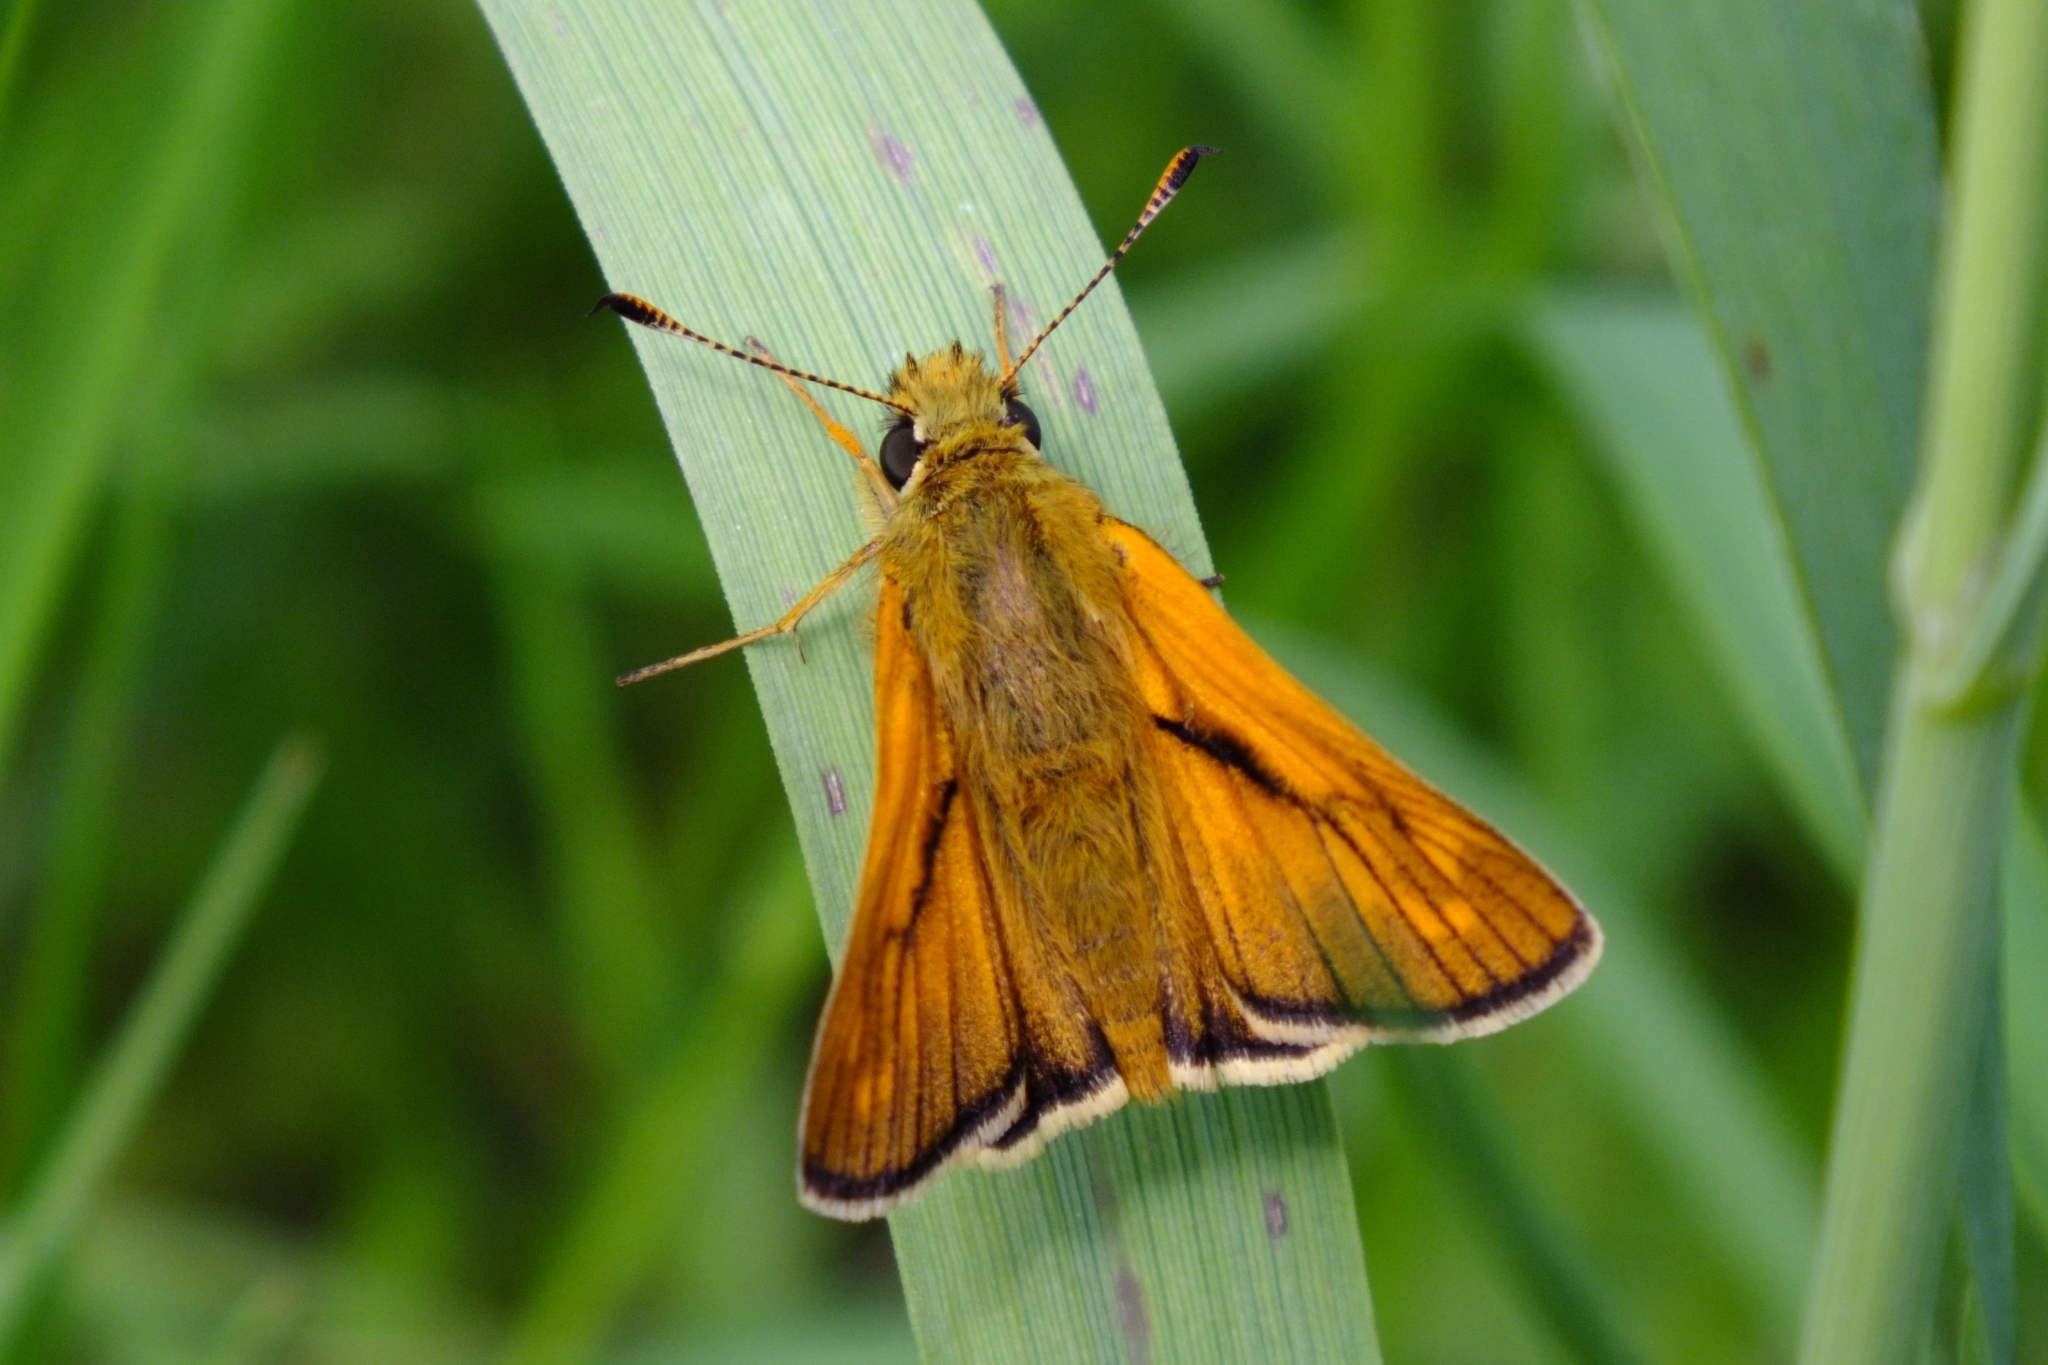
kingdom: Animalia
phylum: Arthropoda
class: Insecta
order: Lepidoptera
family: Hesperiidae
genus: Ochlodes
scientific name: Ochlodes venata
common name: Large skipper
